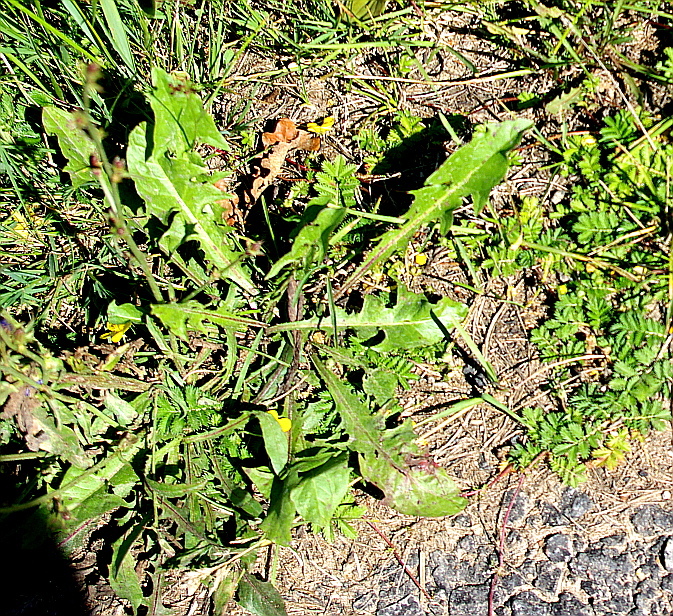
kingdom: Plantae
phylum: Tracheophyta
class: Magnoliopsida
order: Asterales
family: Asteraceae
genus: Taraxacum
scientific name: Taraxacum officinale
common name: Common dandelion
